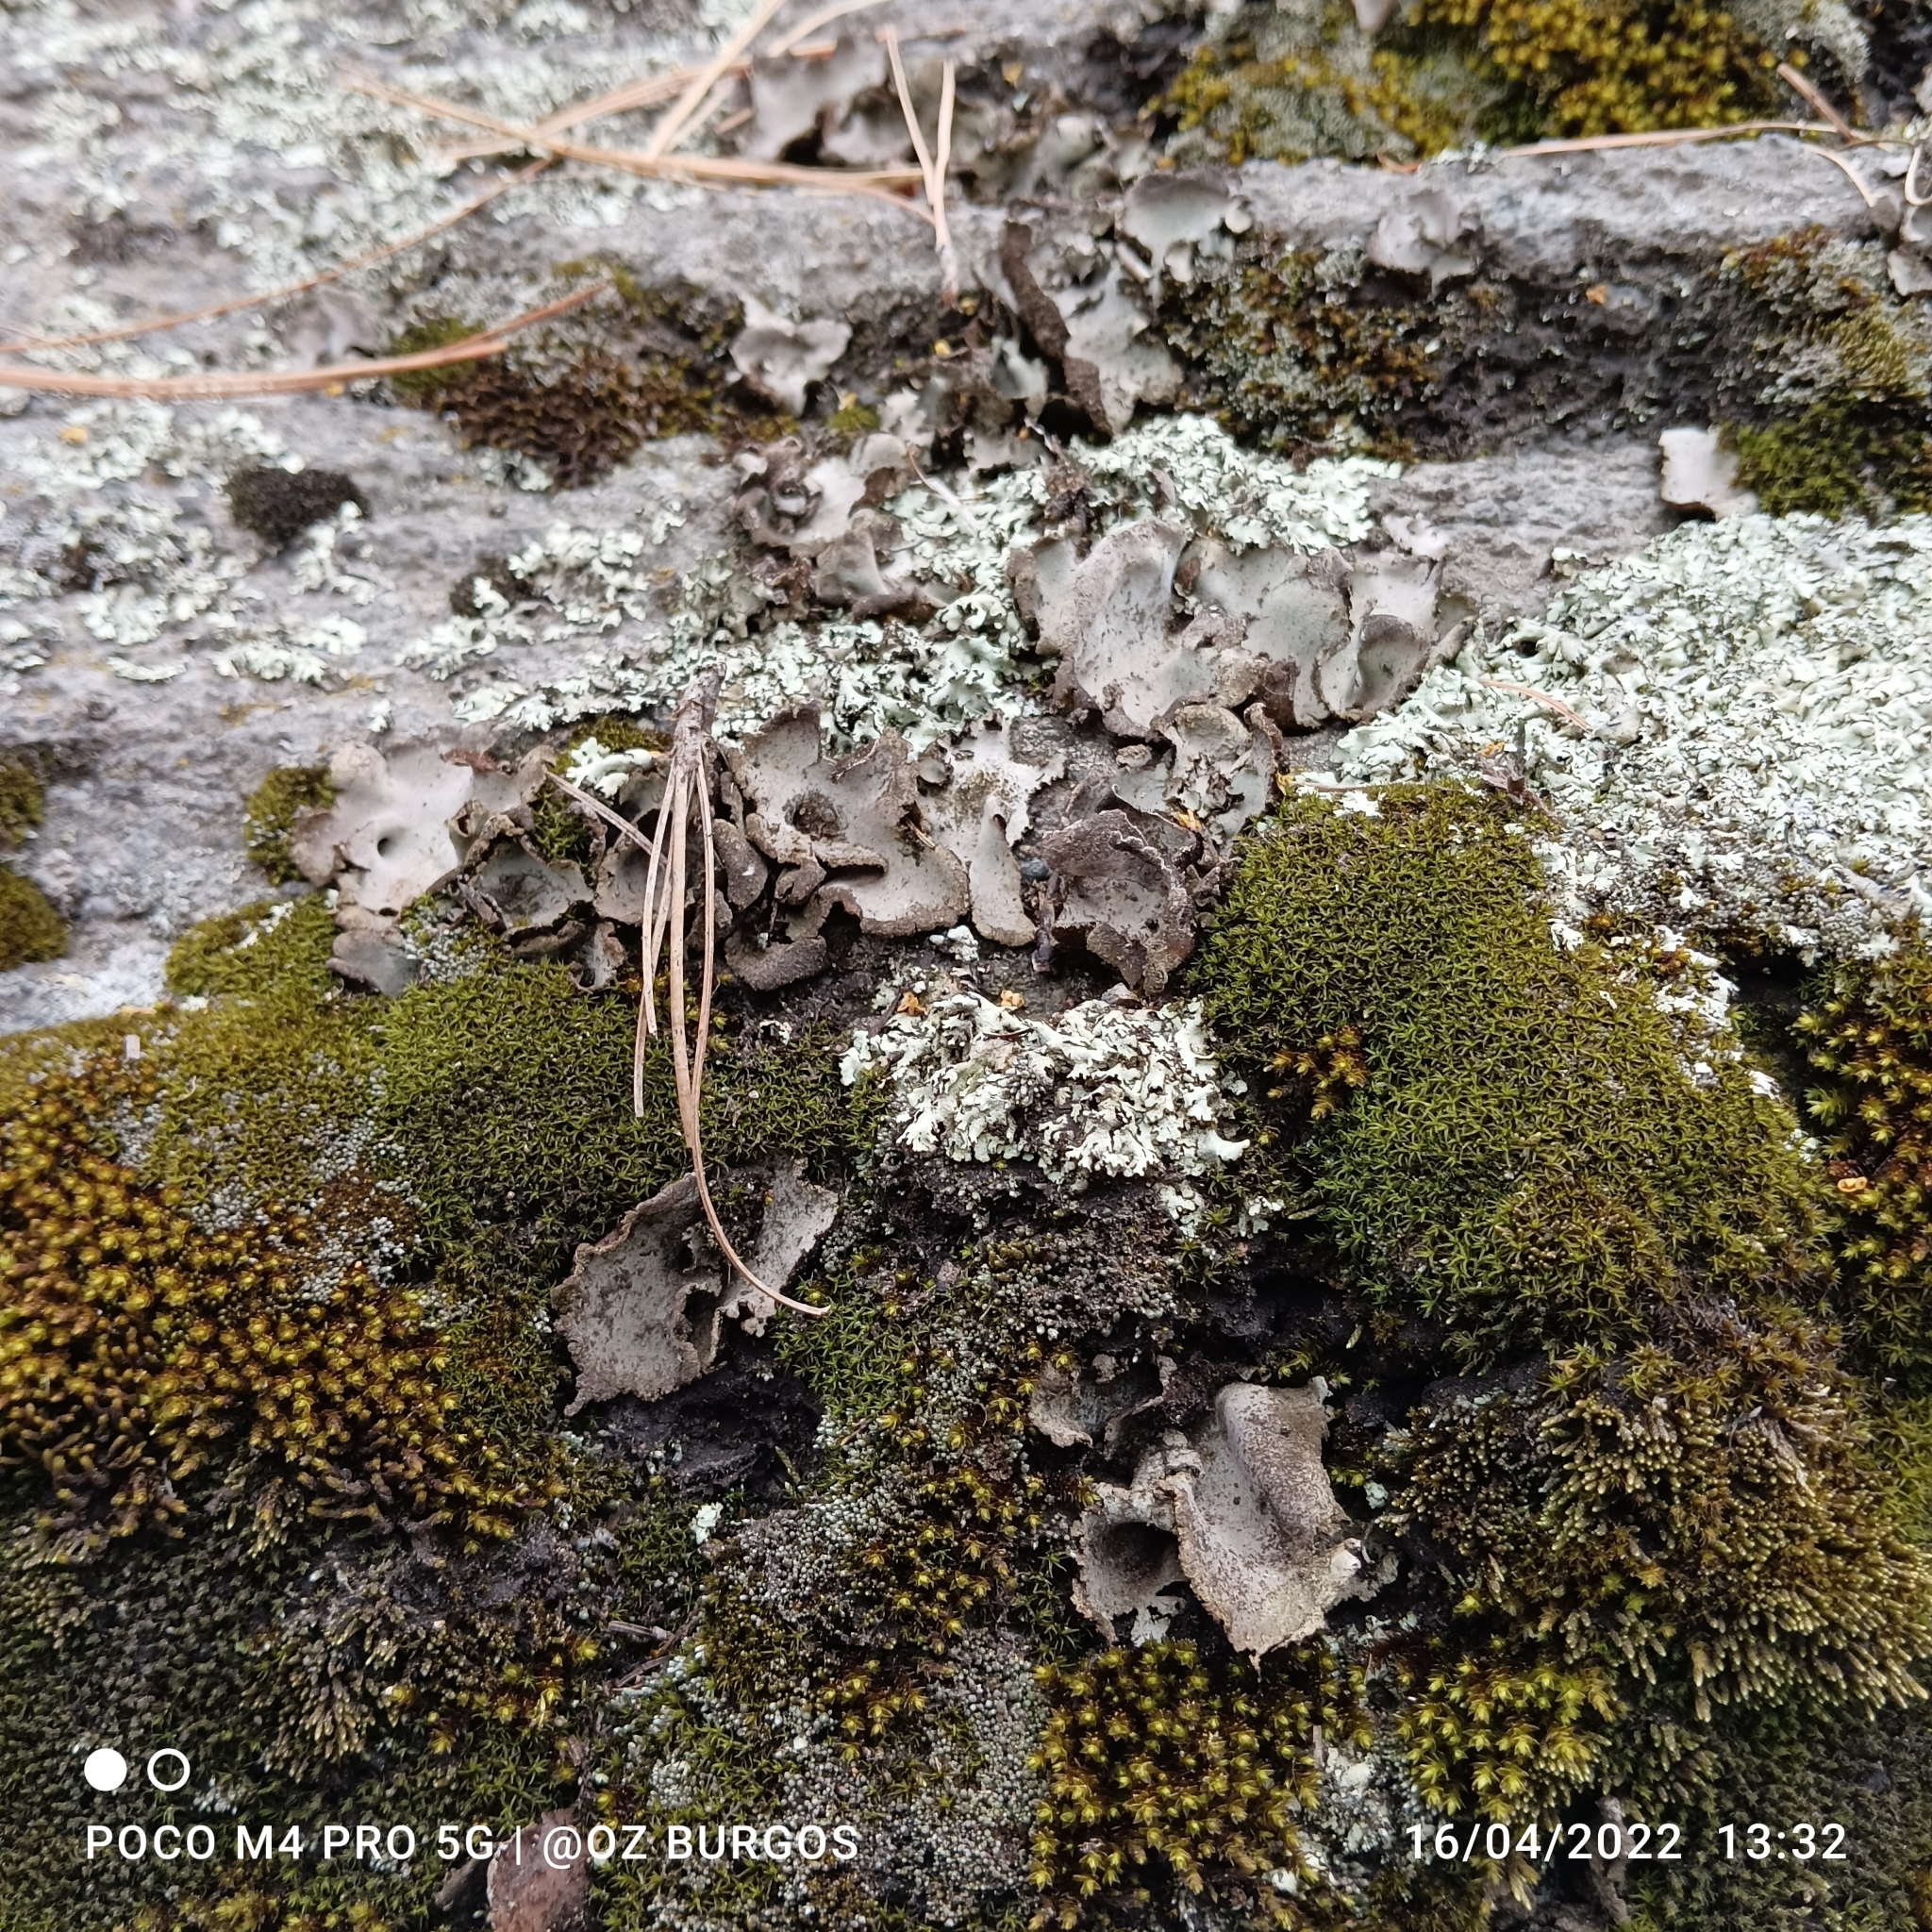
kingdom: Fungi
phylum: Ascomycota
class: Eurotiomycetes
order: Verrucariales
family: Verrucariaceae
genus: Dermatocarpon
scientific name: Dermatocarpon miniatum
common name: Leather lichen
